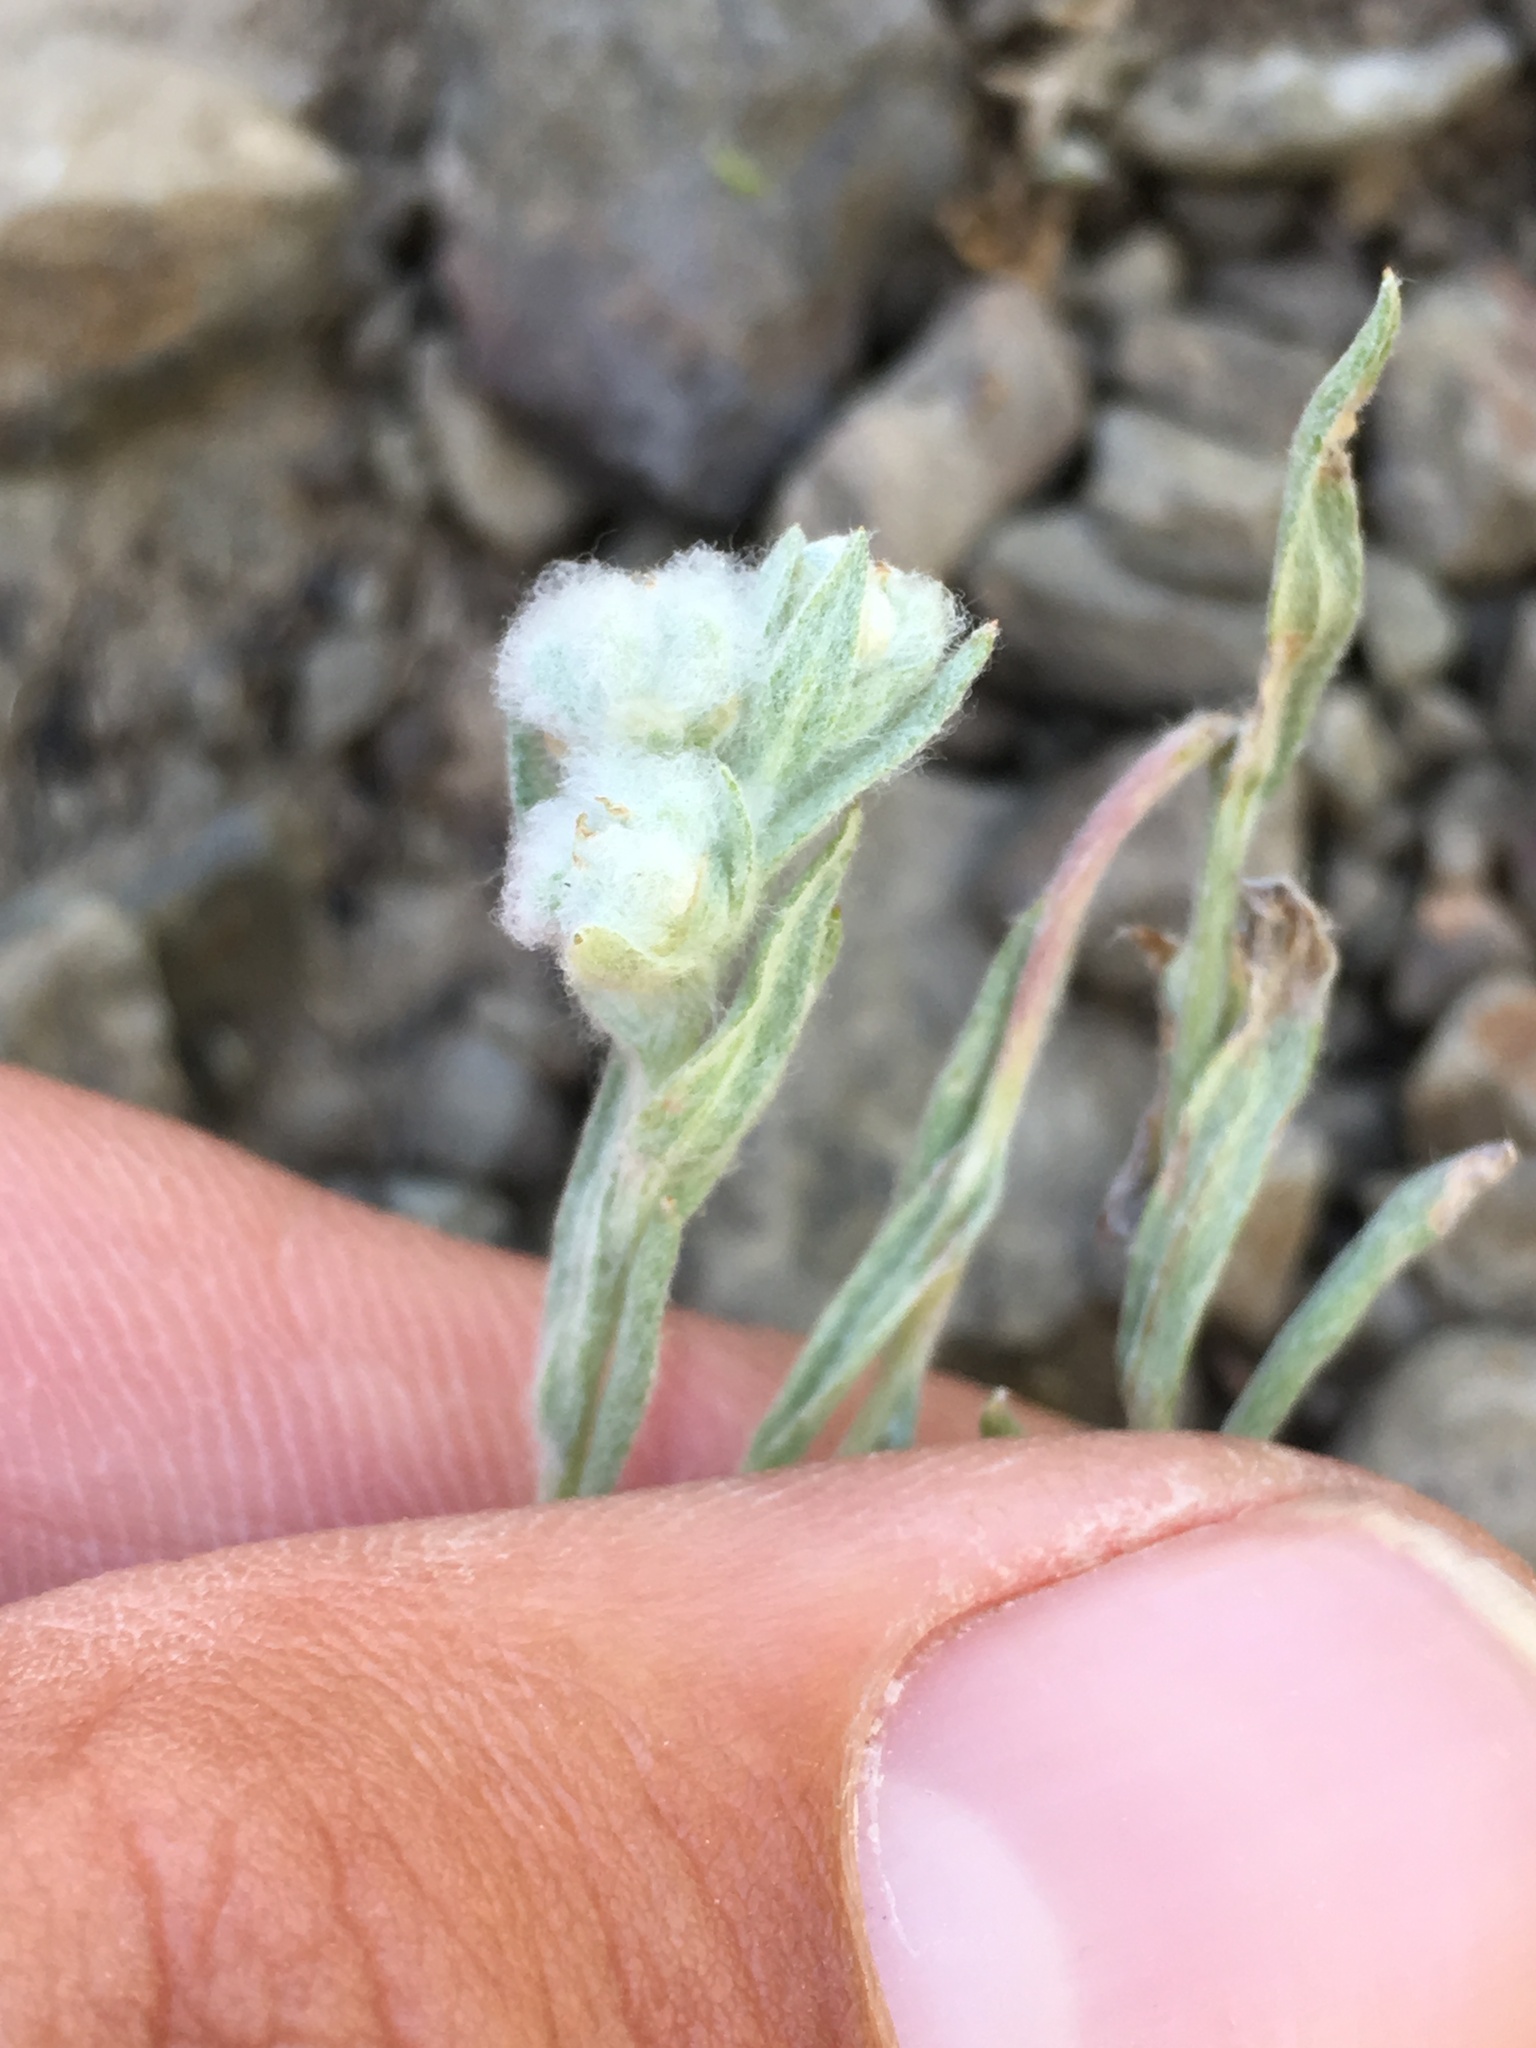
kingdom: Plantae
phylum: Tracheophyta
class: Magnoliopsida
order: Asterales
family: Asteraceae
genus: Bombycilaena
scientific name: Bombycilaena californica
